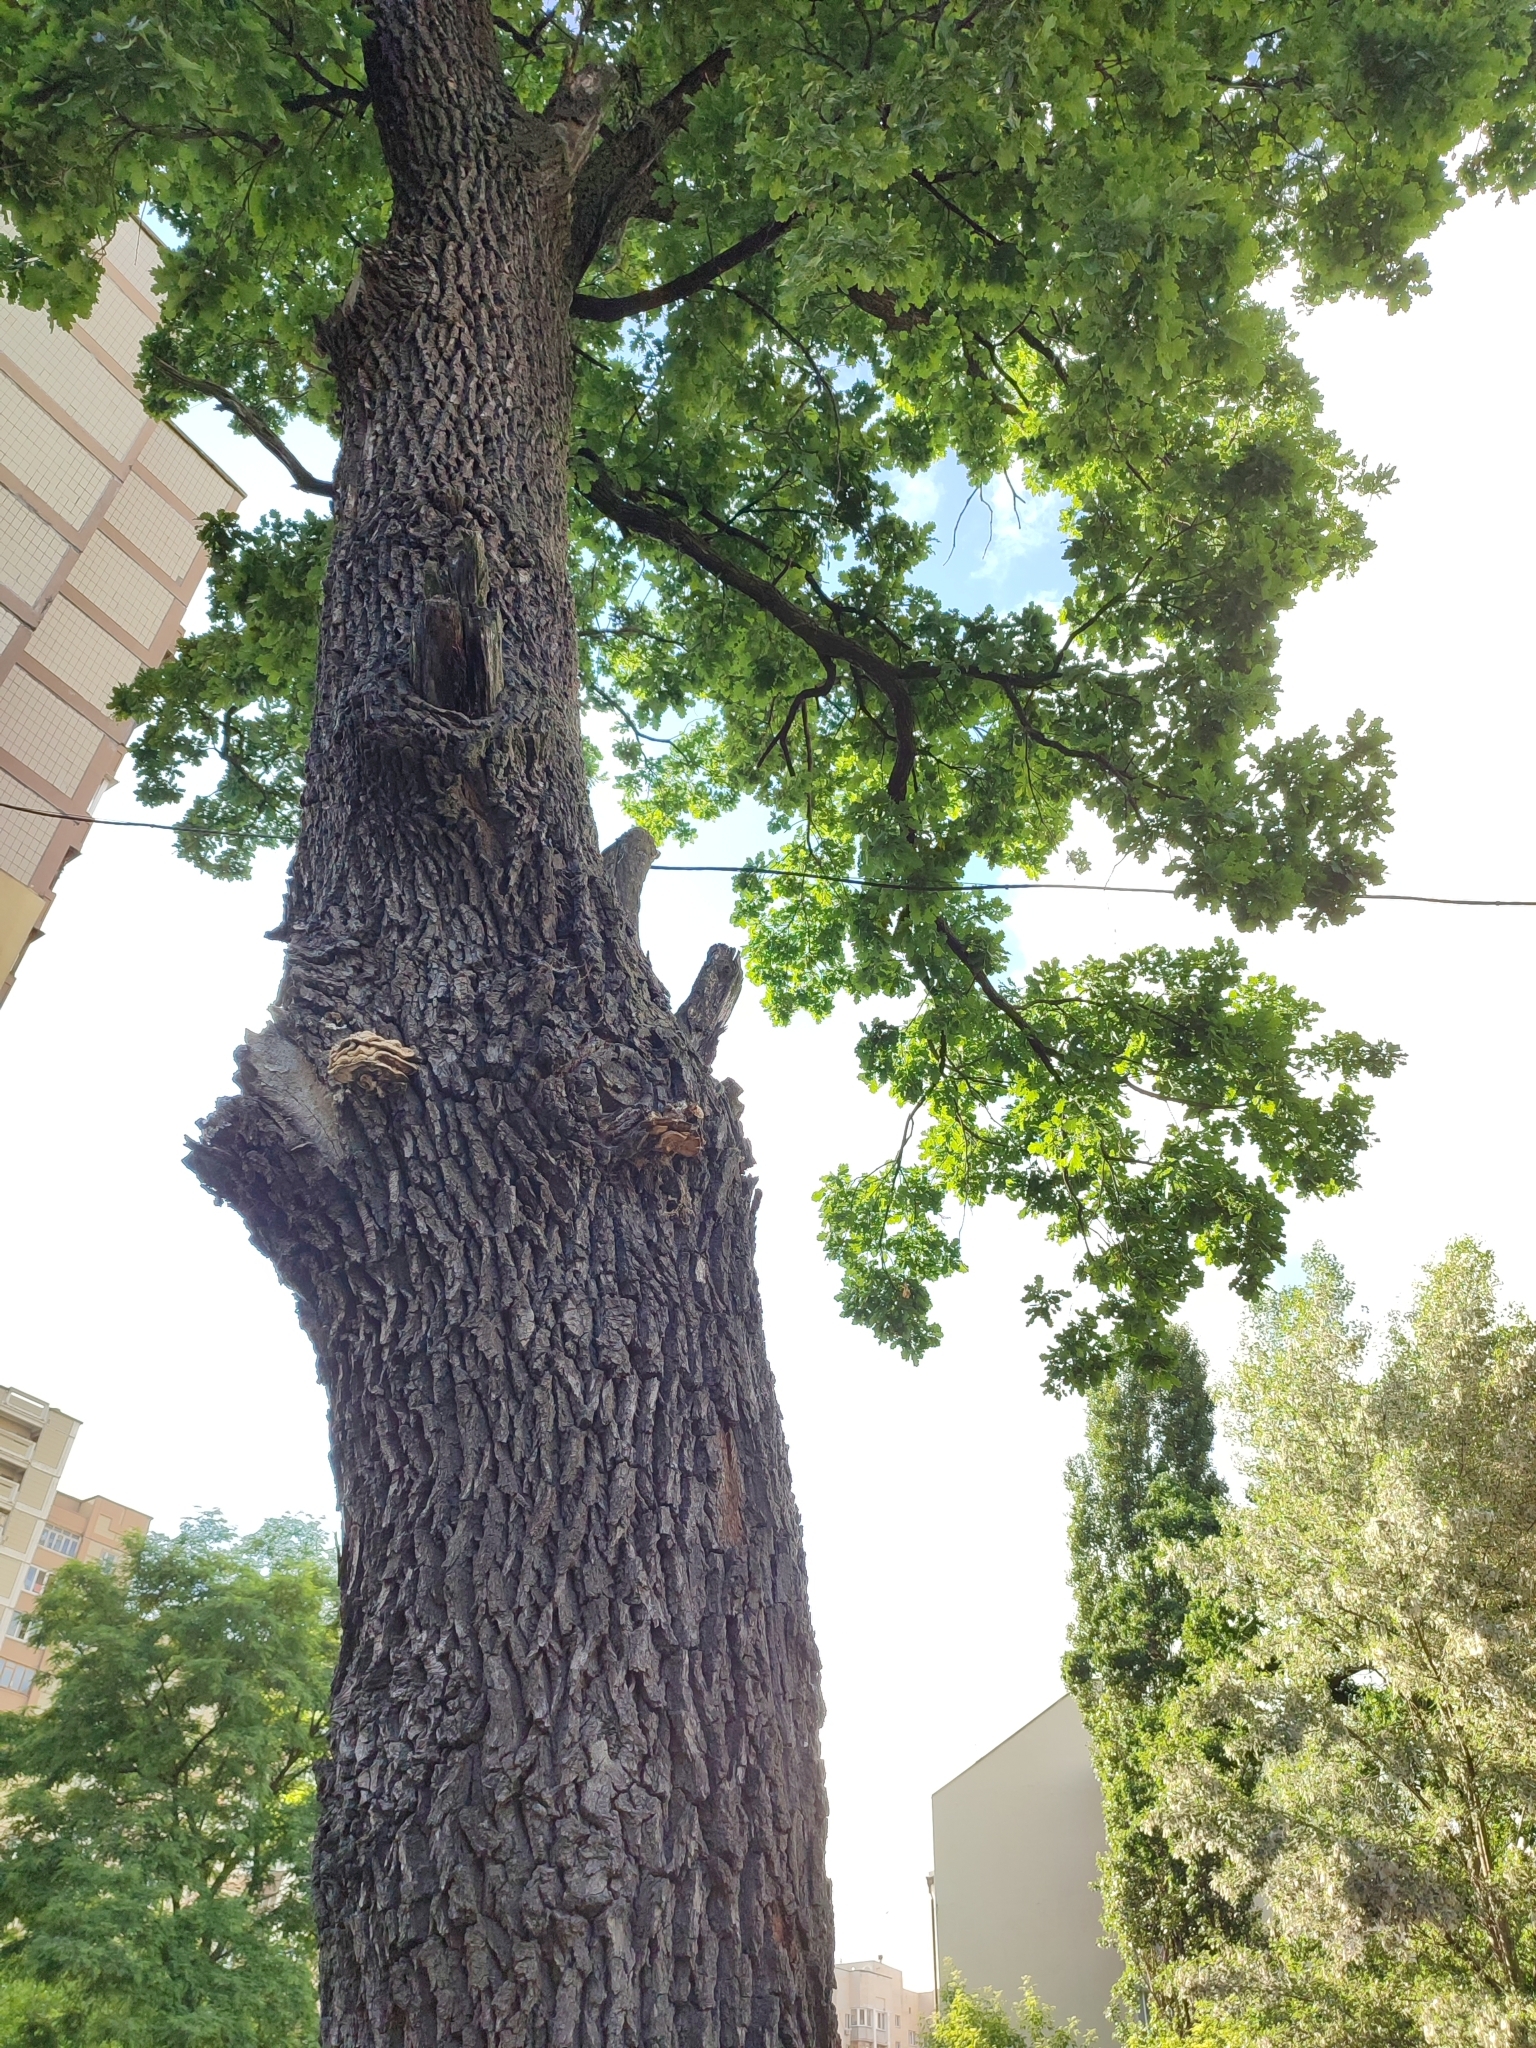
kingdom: Plantae
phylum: Tracheophyta
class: Magnoliopsida
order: Fagales
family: Fagaceae
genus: Quercus
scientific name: Quercus robur
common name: Pedunculate oak
